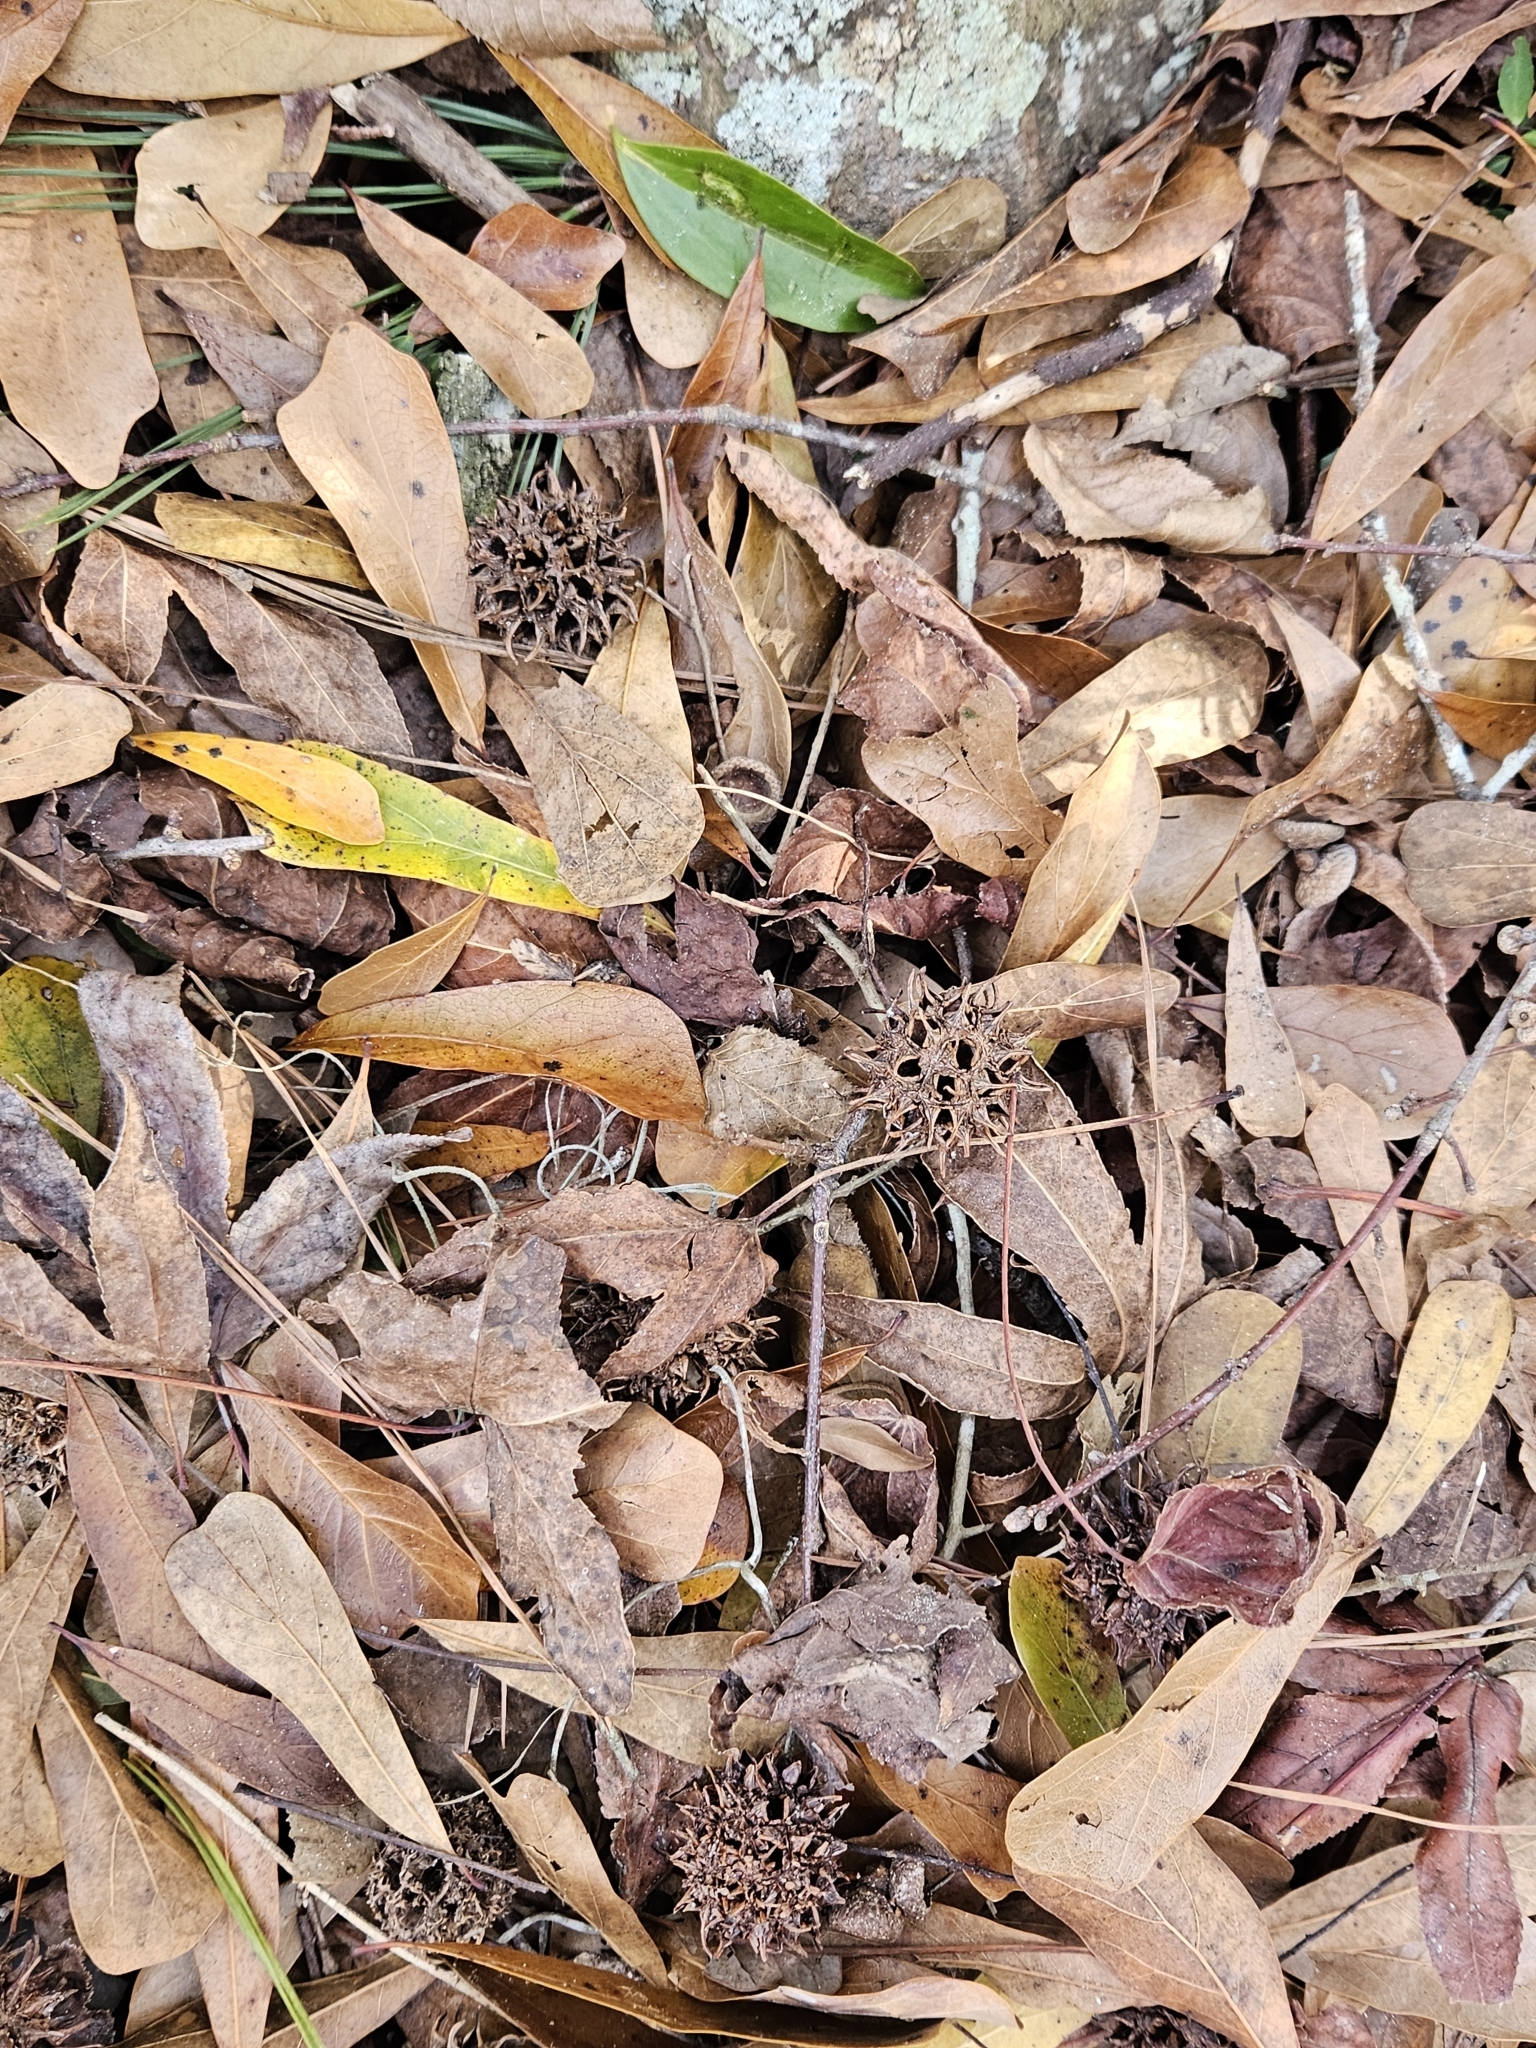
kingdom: Plantae
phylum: Tracheophyta
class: Magnoliopsida
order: Saxifragales
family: Altingiaceae
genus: Liquidambar
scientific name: Liquidambar styraciflua
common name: Sweet gum
